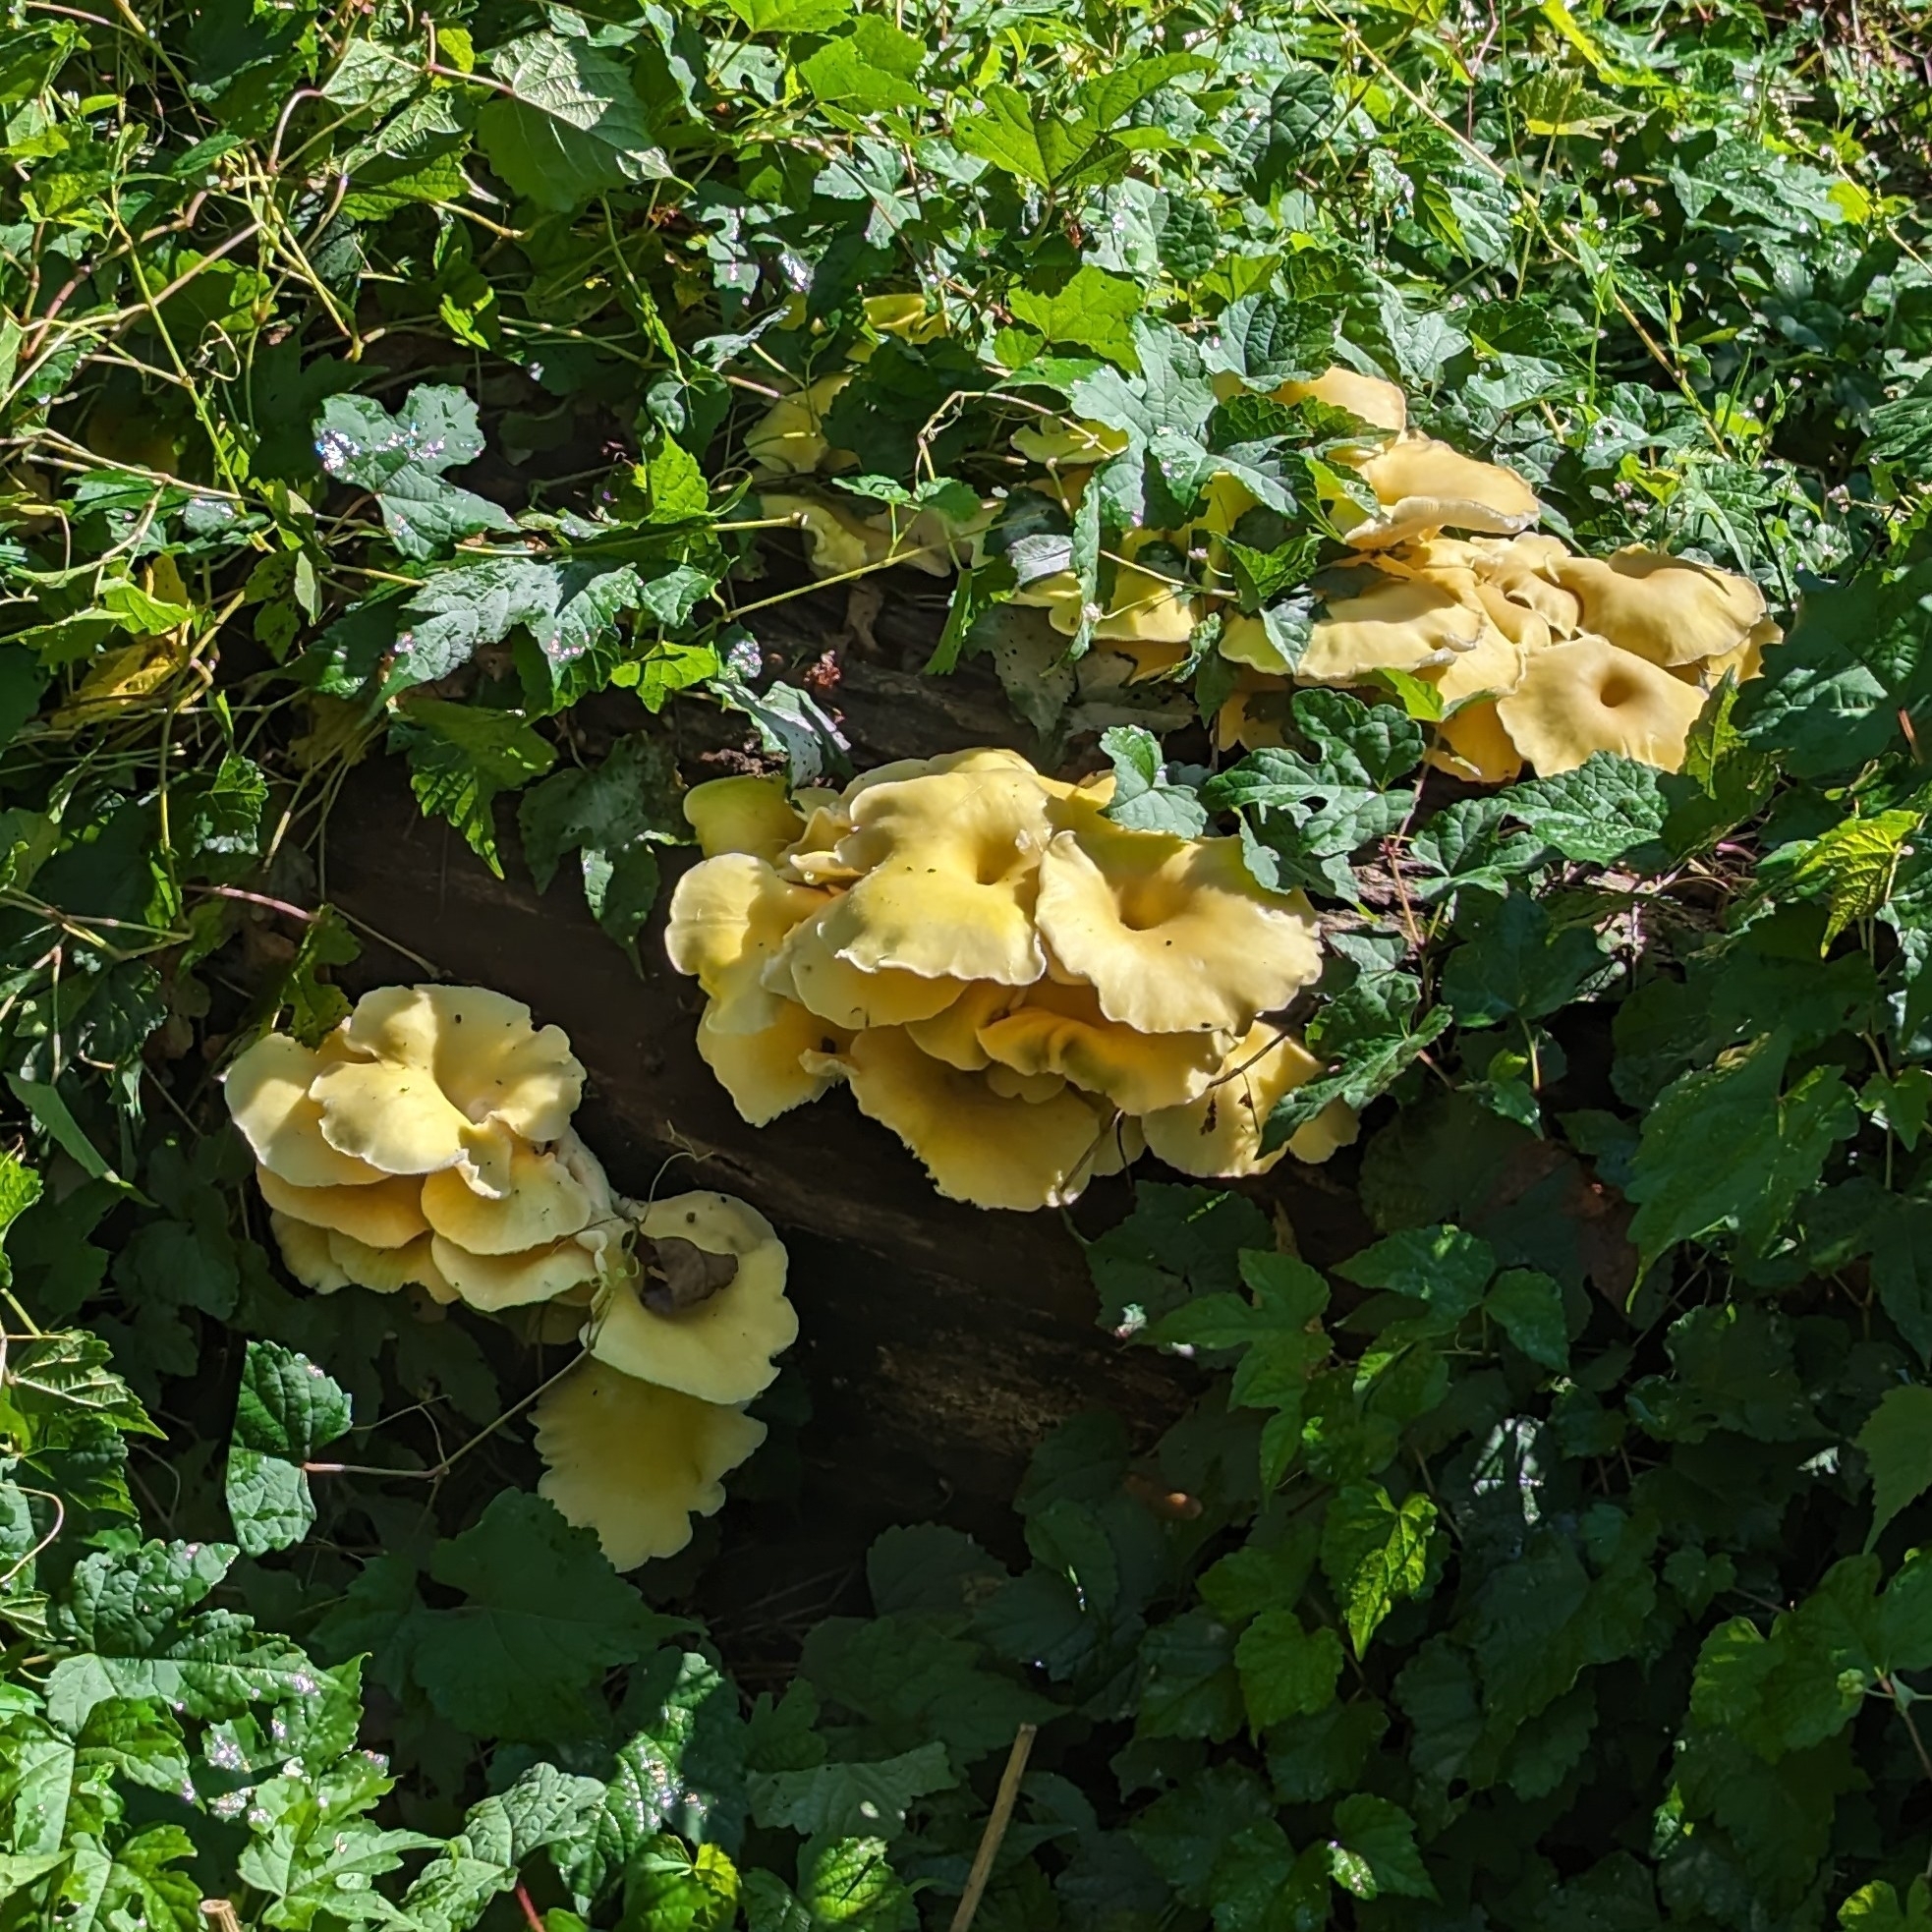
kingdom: Fungi
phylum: Basidiomycota
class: Agaricomycetes
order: Agaricales
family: Pleurotaceae
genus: Pleurotus
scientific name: Pleurotus citrinopileatus
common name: Golden oyster mushroom
